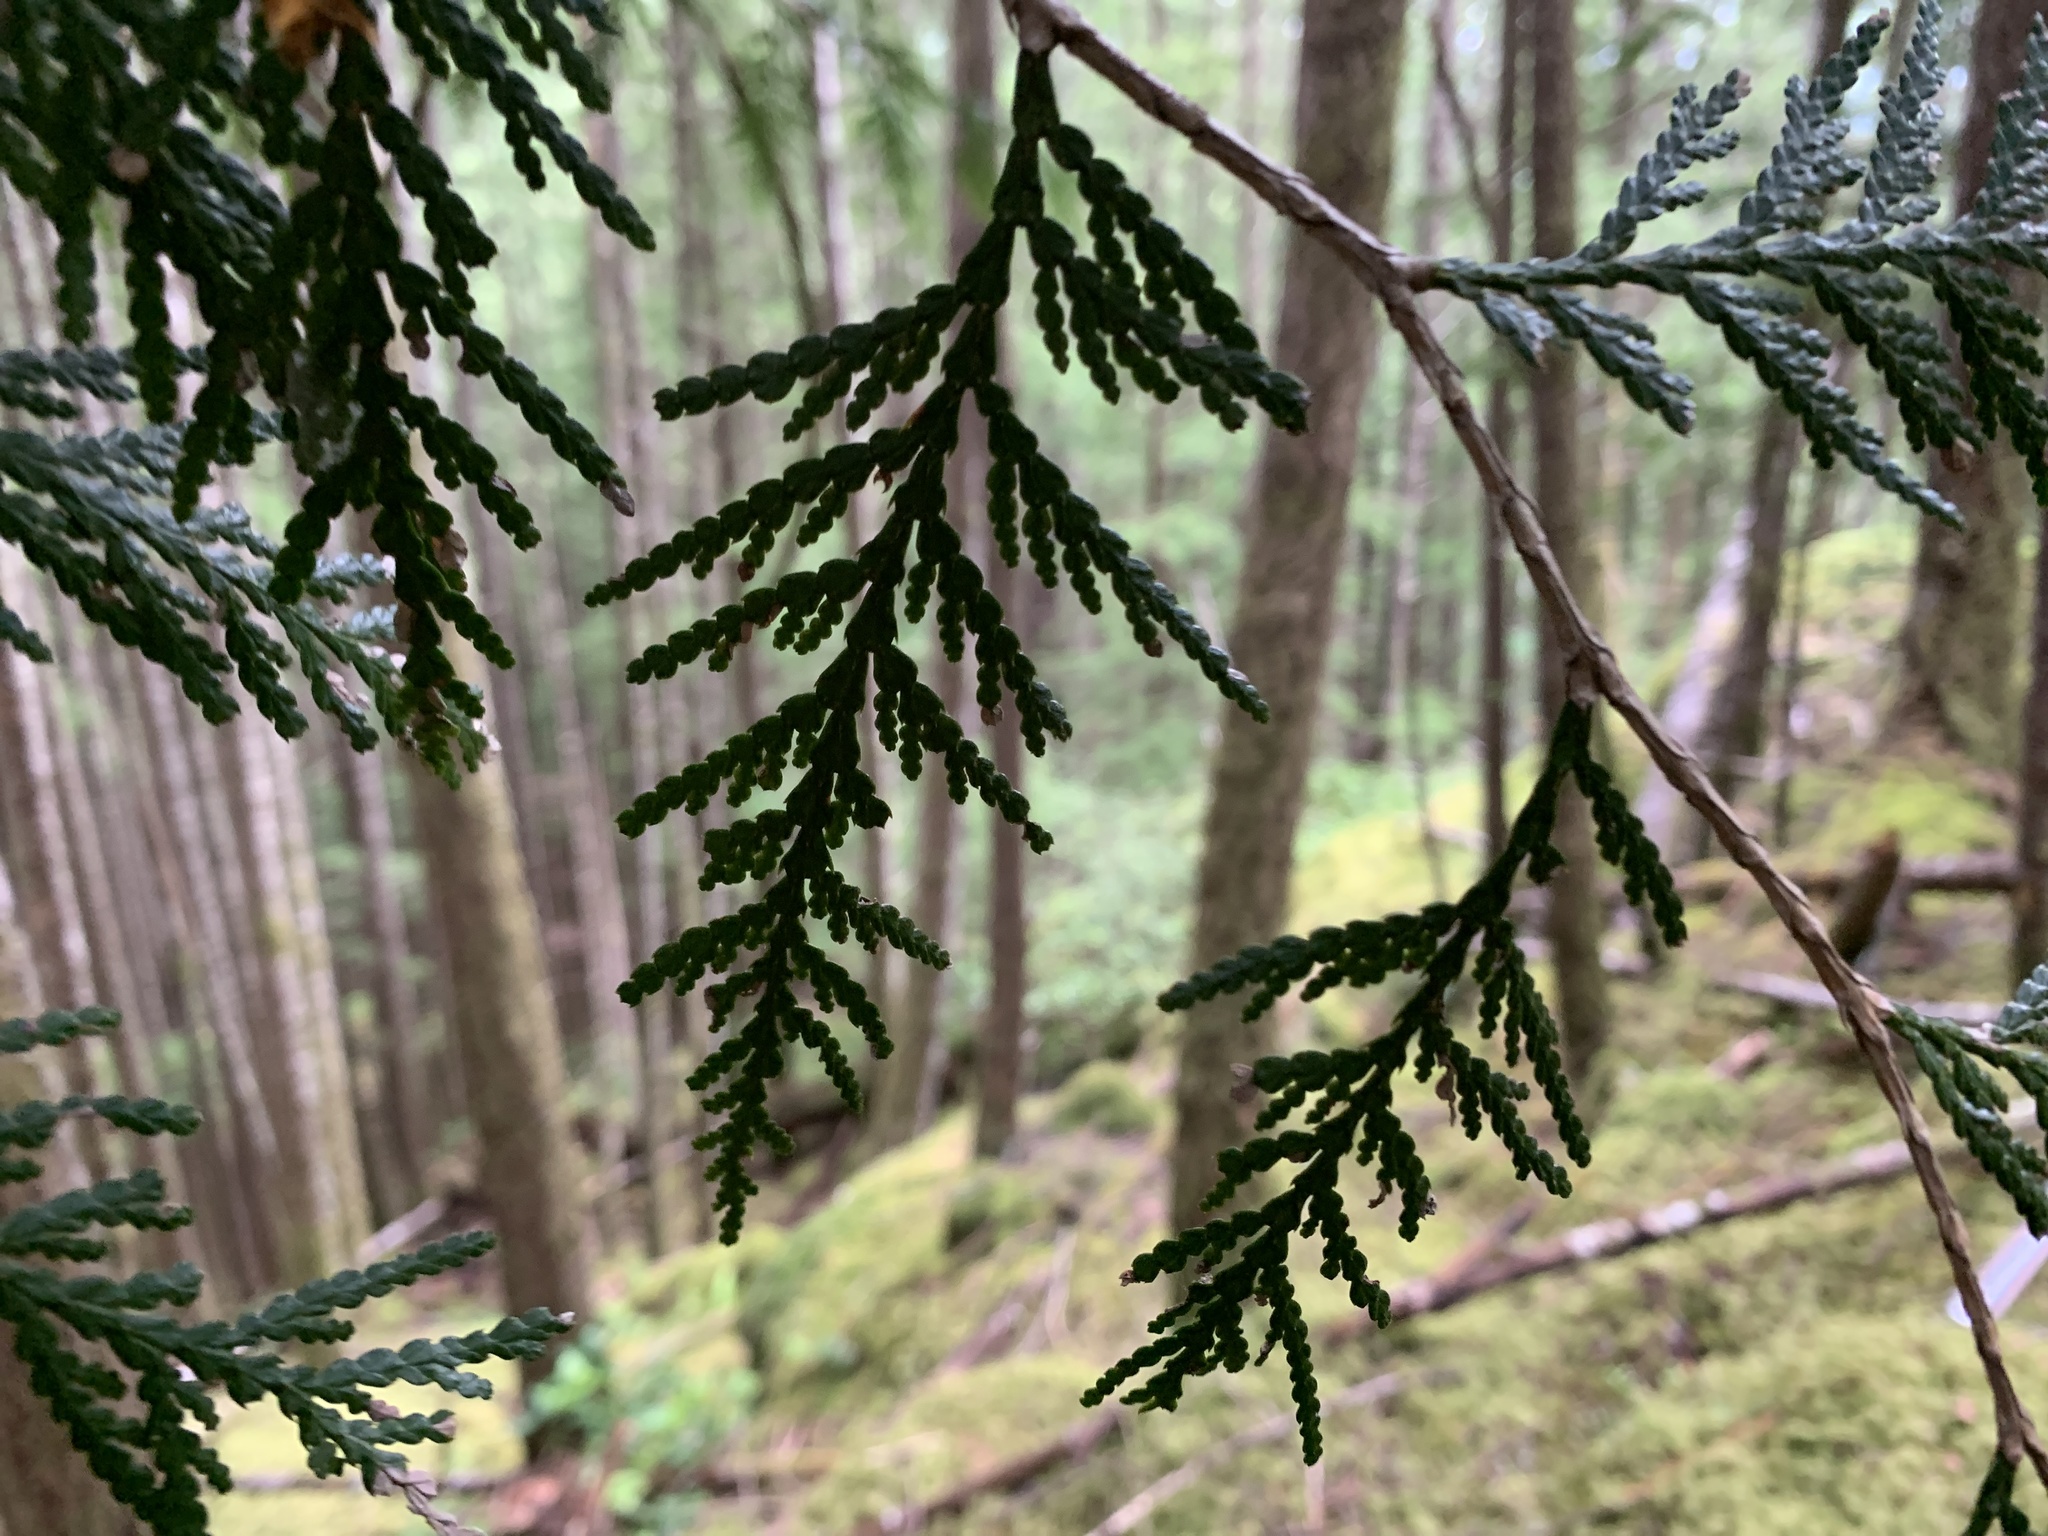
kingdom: Plantae
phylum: Tracheophyta
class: Pinopsida
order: Pinales
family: Cupressaceae
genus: Thuja
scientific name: Thuja plicata
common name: Western red-cedar
